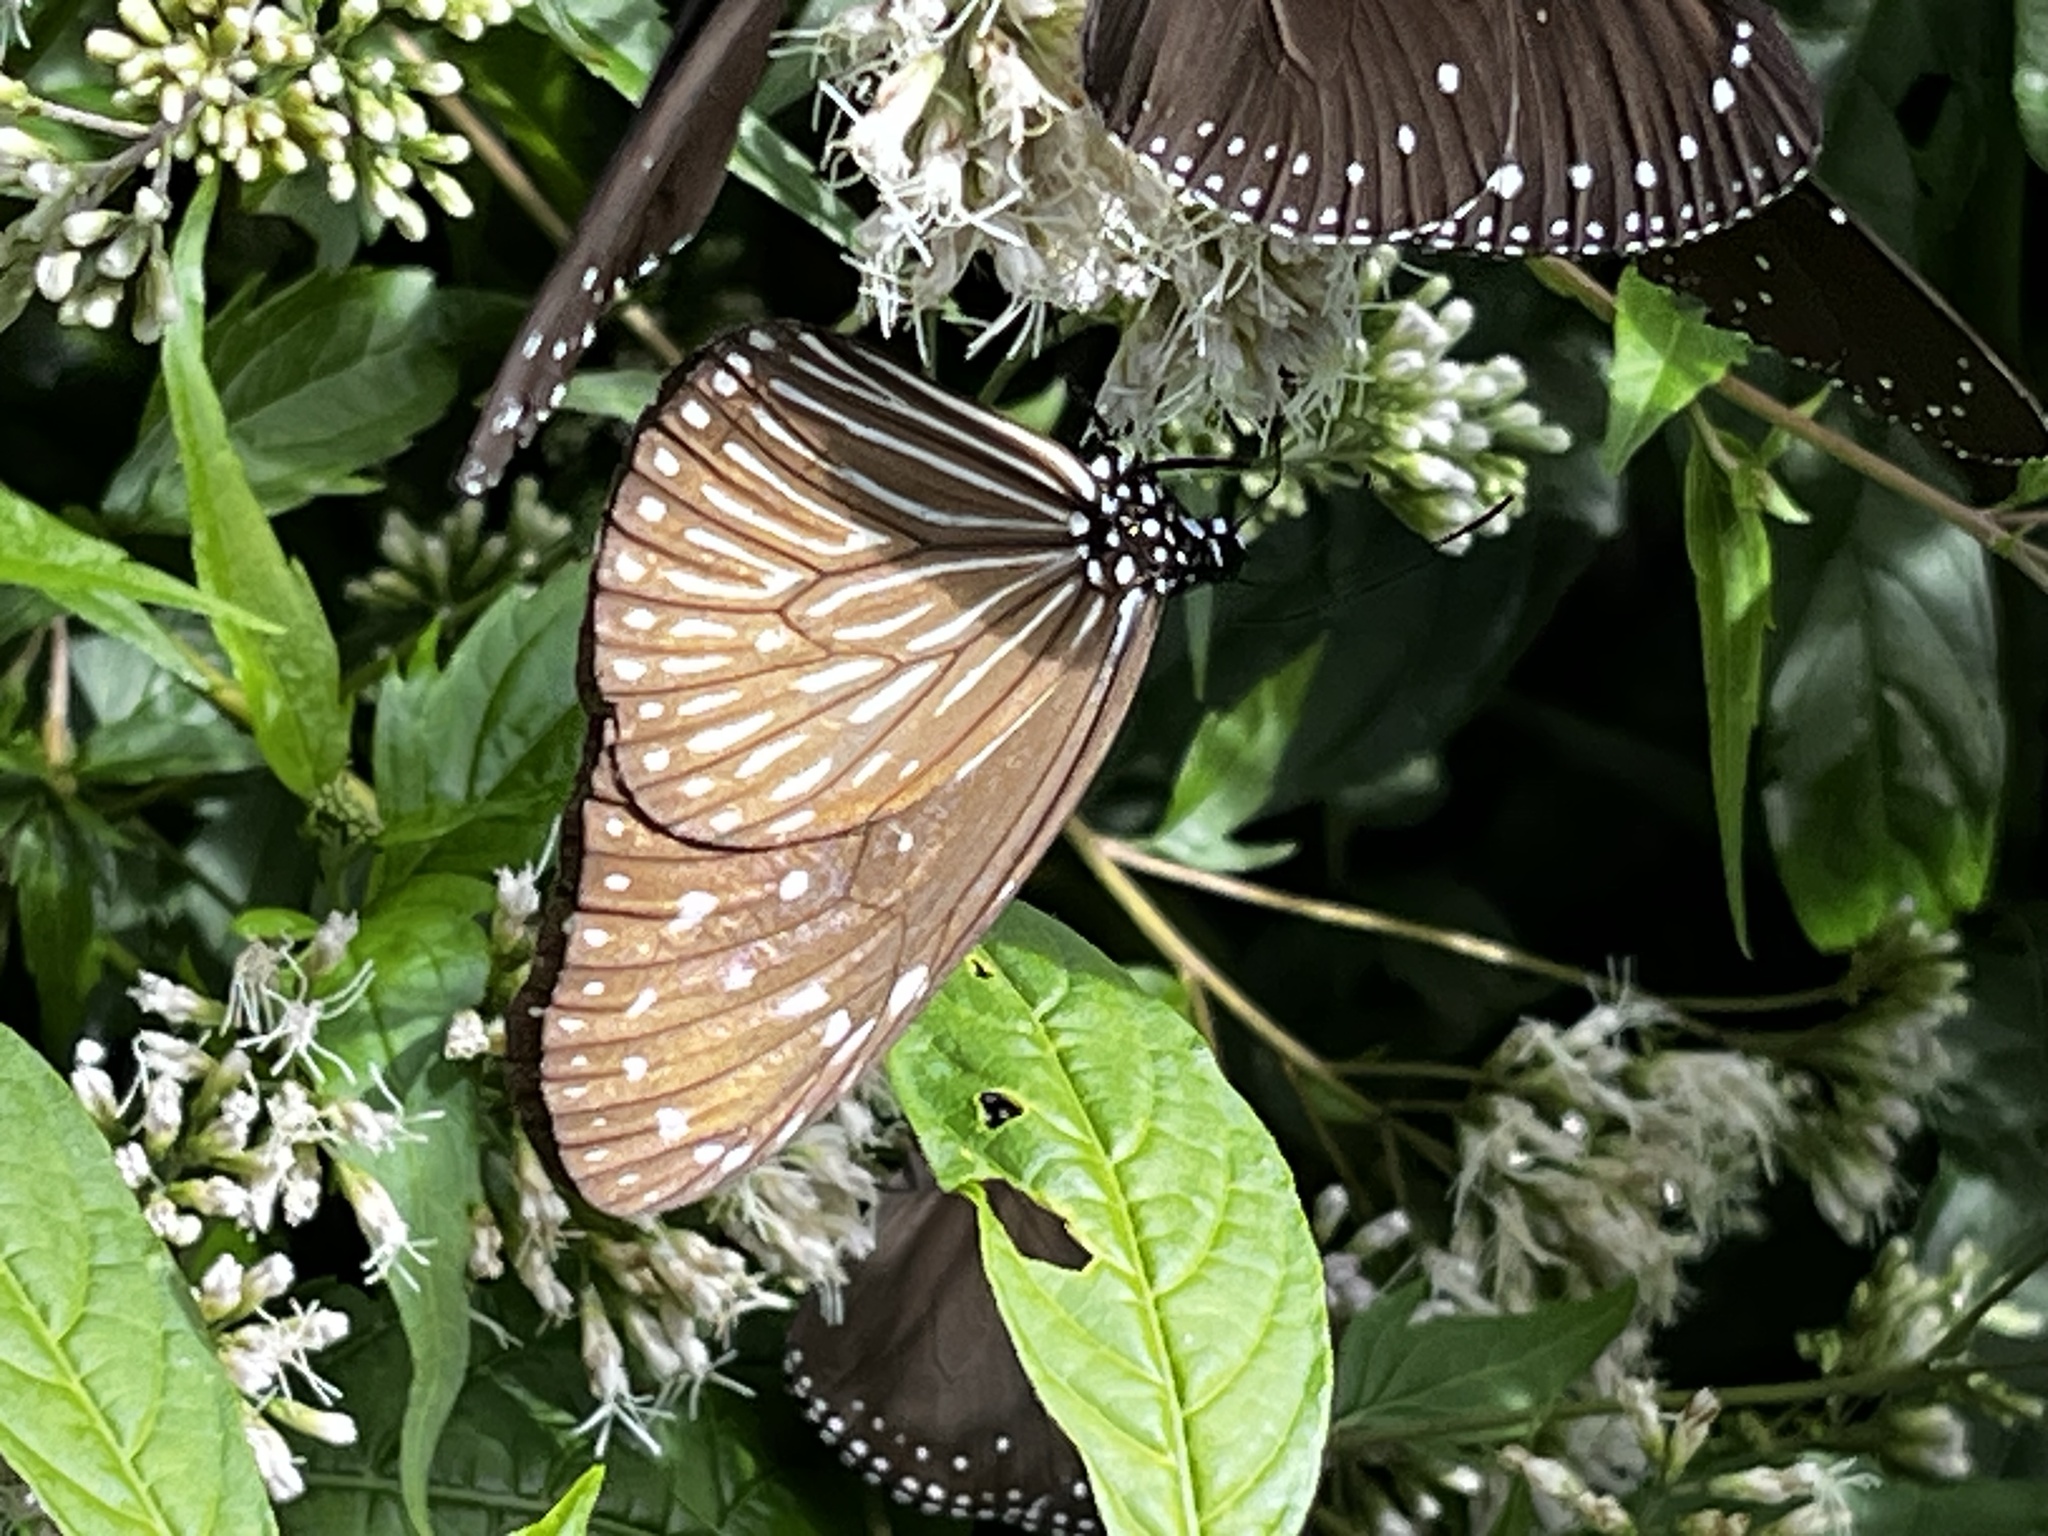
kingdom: Animalia
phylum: Arthropoda
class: Insecta
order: Lepidoptera
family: Nymphalidae
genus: Euploea
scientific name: Euploea mulciber
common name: Striped blue crow butterfly
